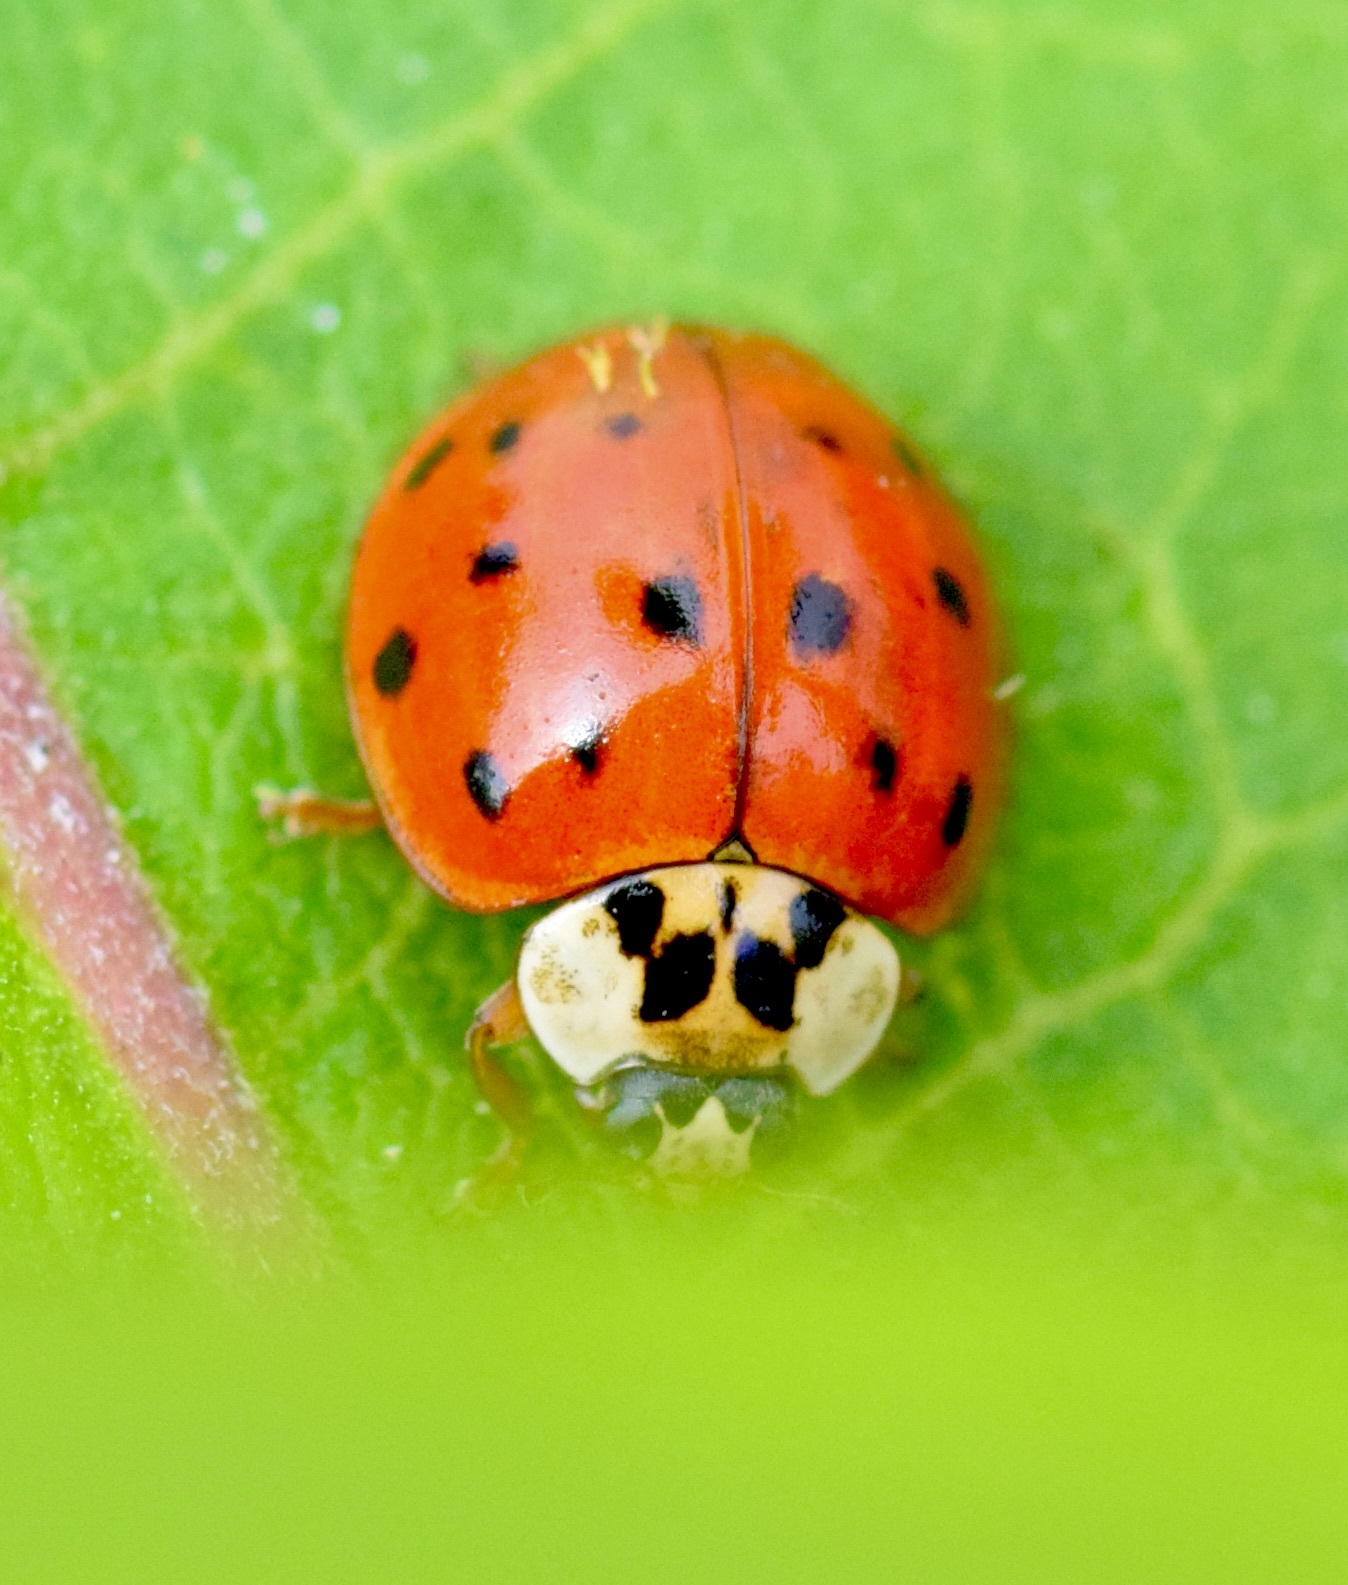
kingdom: Animalia
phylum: Arthropoda
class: Insecta
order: Coleoptera
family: Coccinellidae
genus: Harmonia
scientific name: Harmonia axyridis
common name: Harlequin ladybird
